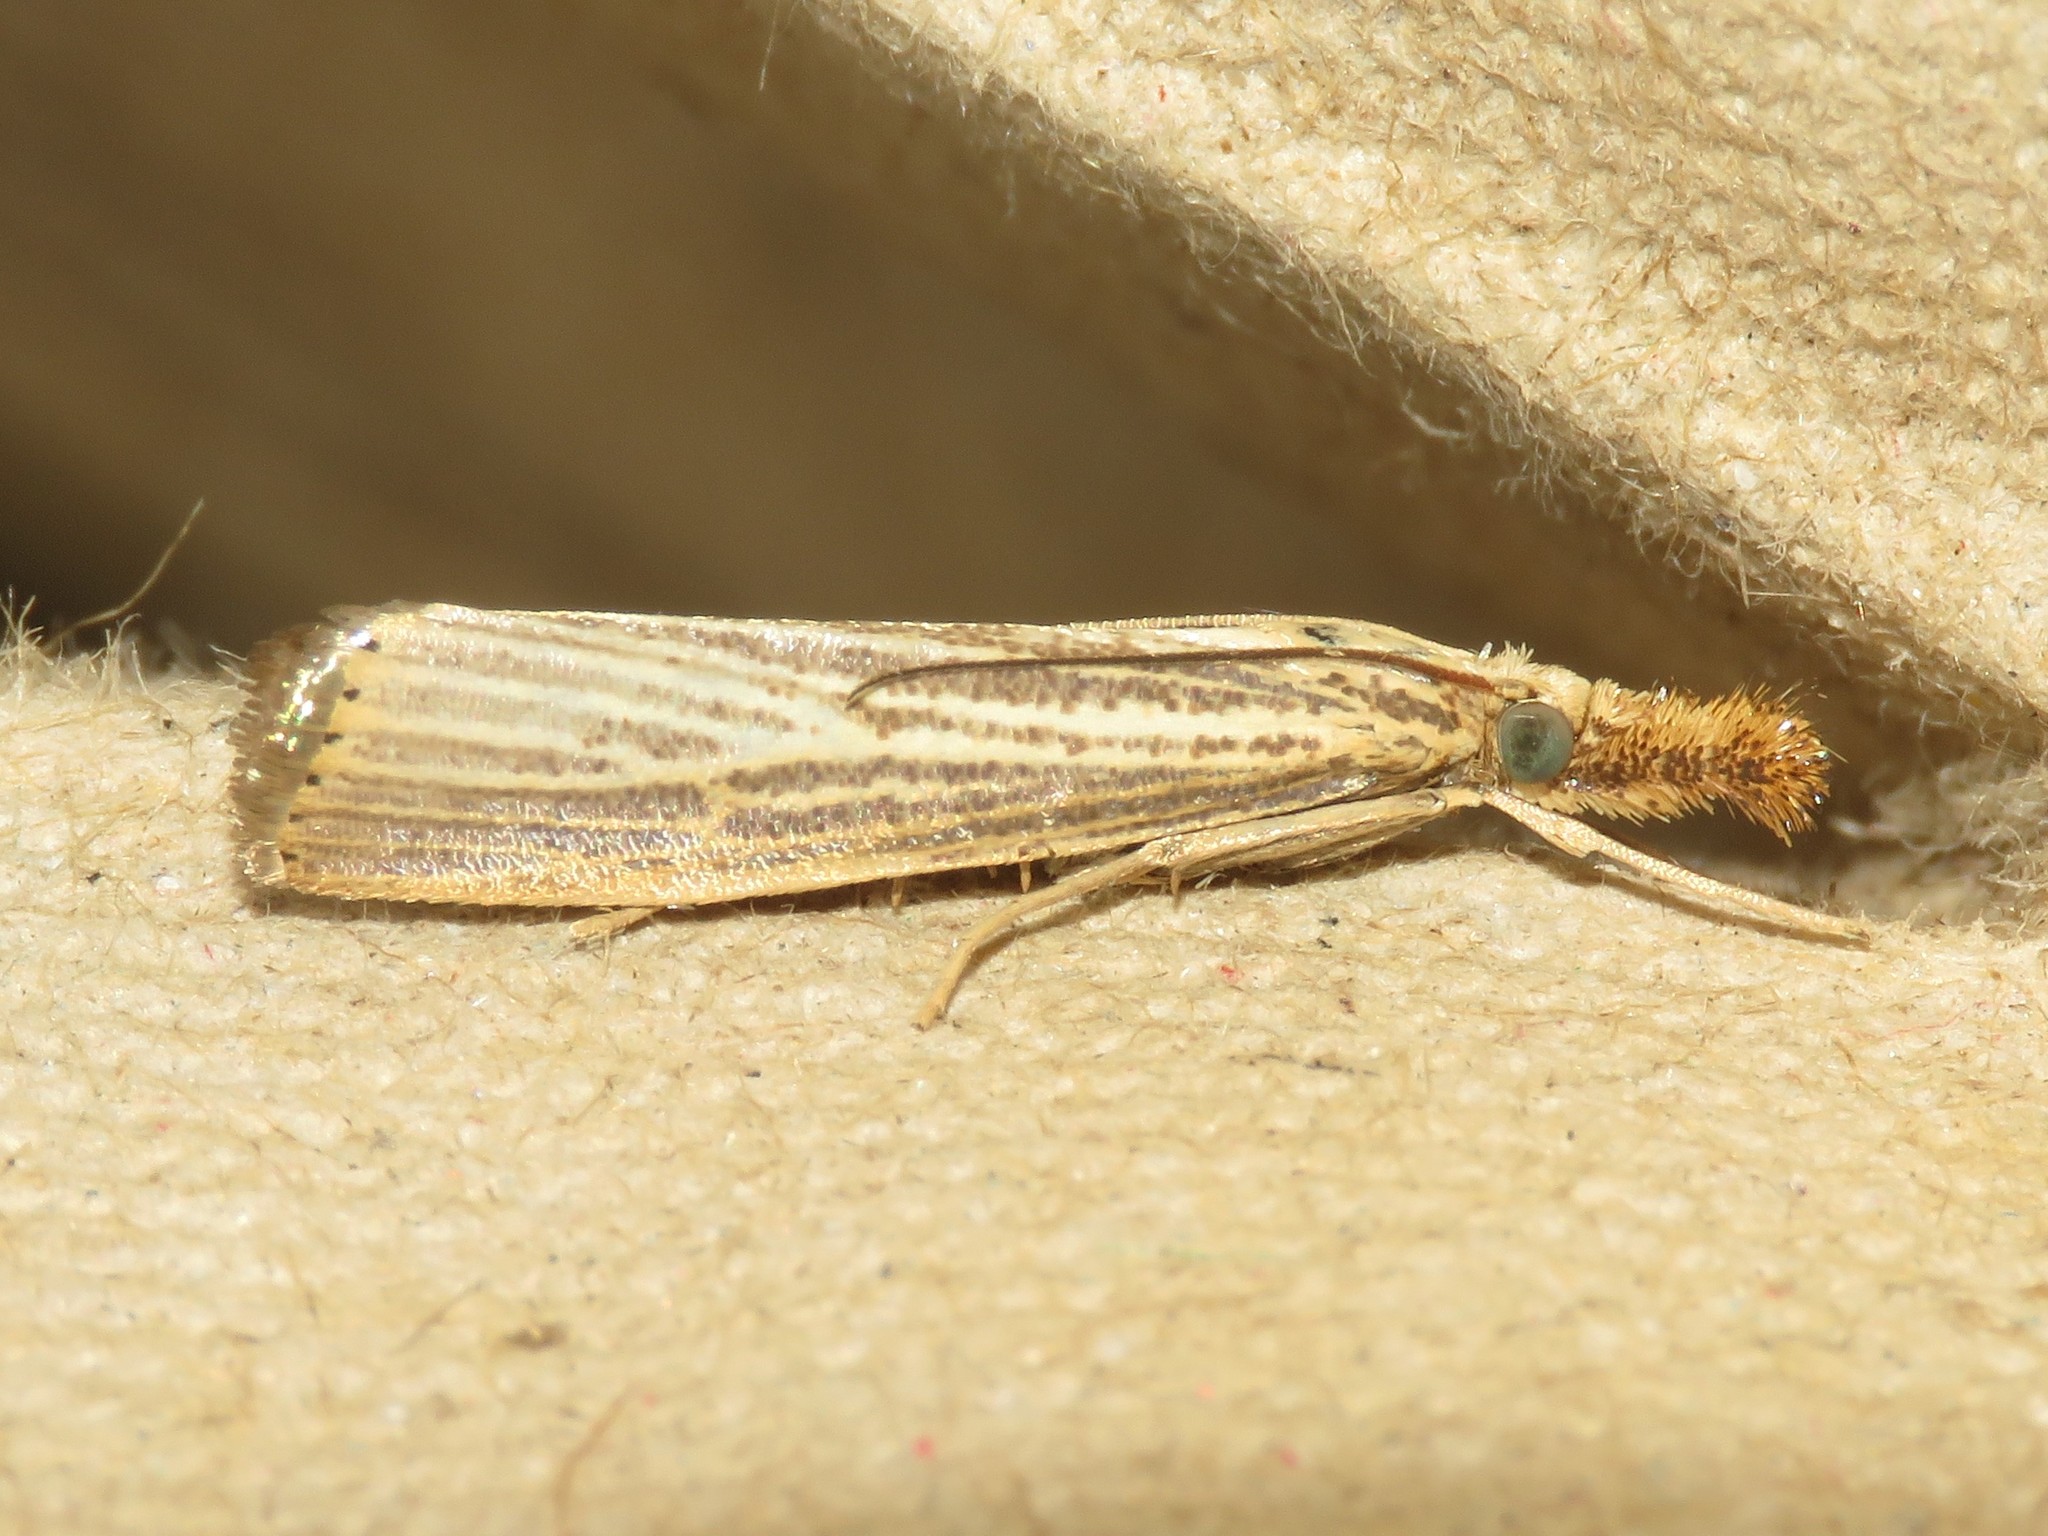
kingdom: Animalia
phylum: Arthropoda
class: Insecta
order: Lepidoptera
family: Crambidae
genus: Agriphila
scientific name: Agriphila vulgivagellus
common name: Vagabond crambus moth
